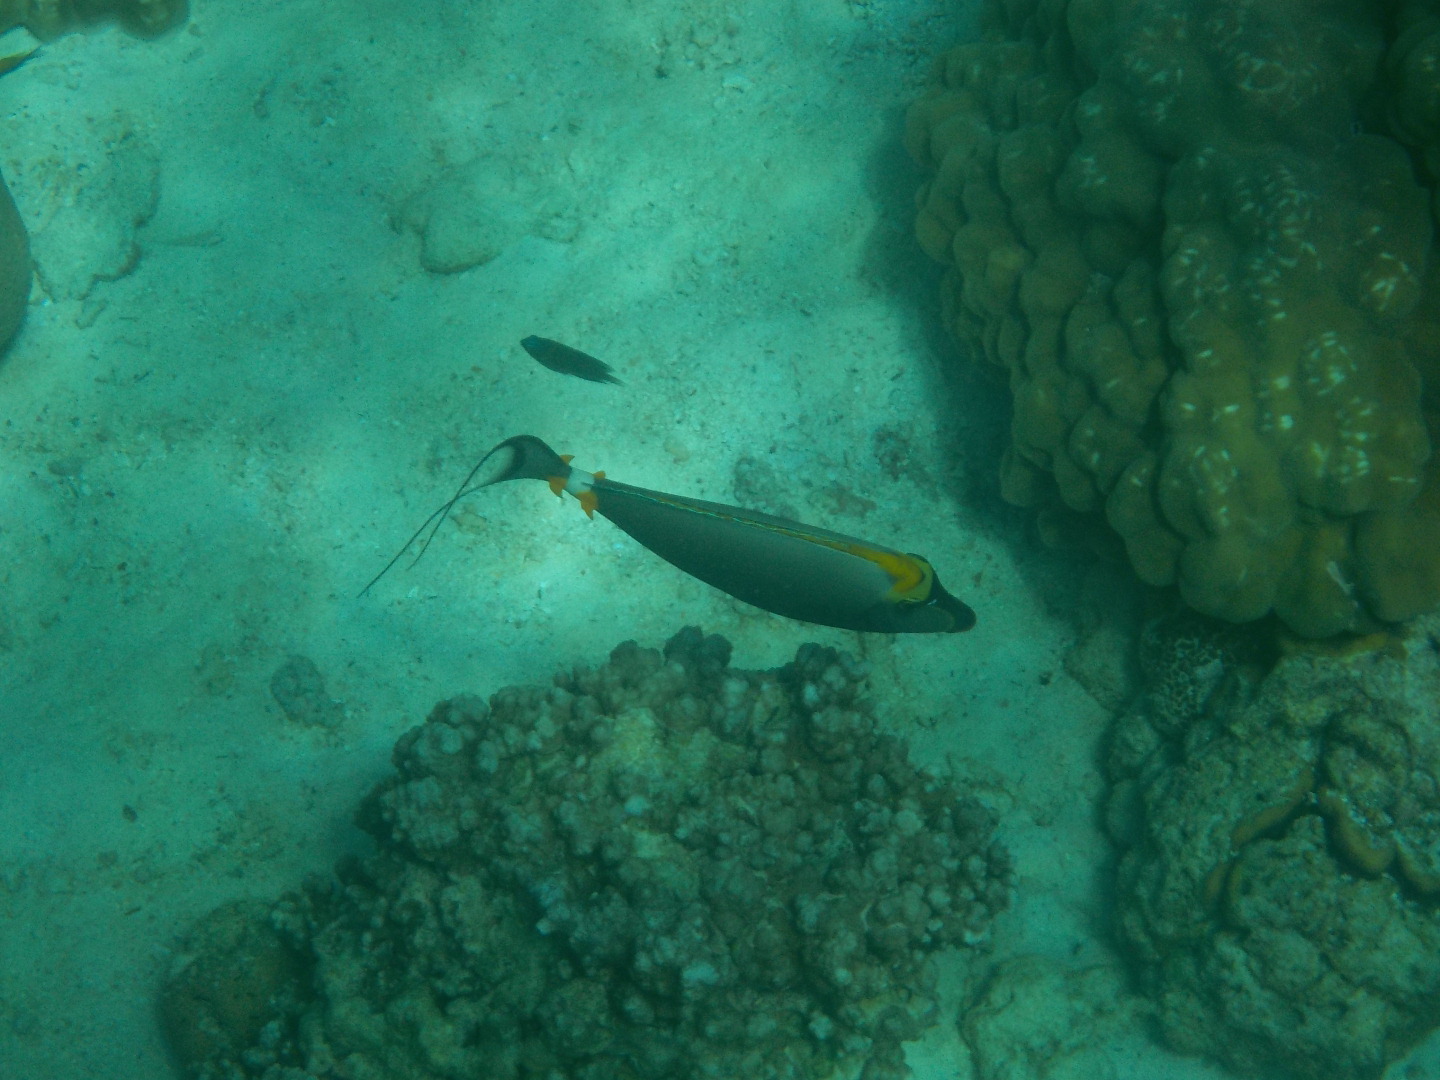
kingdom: Animalia
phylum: Chordata
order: Perciformes
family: Acanthuridae
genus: Naso
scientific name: Naso elegans
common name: Orangespine unicornfish
